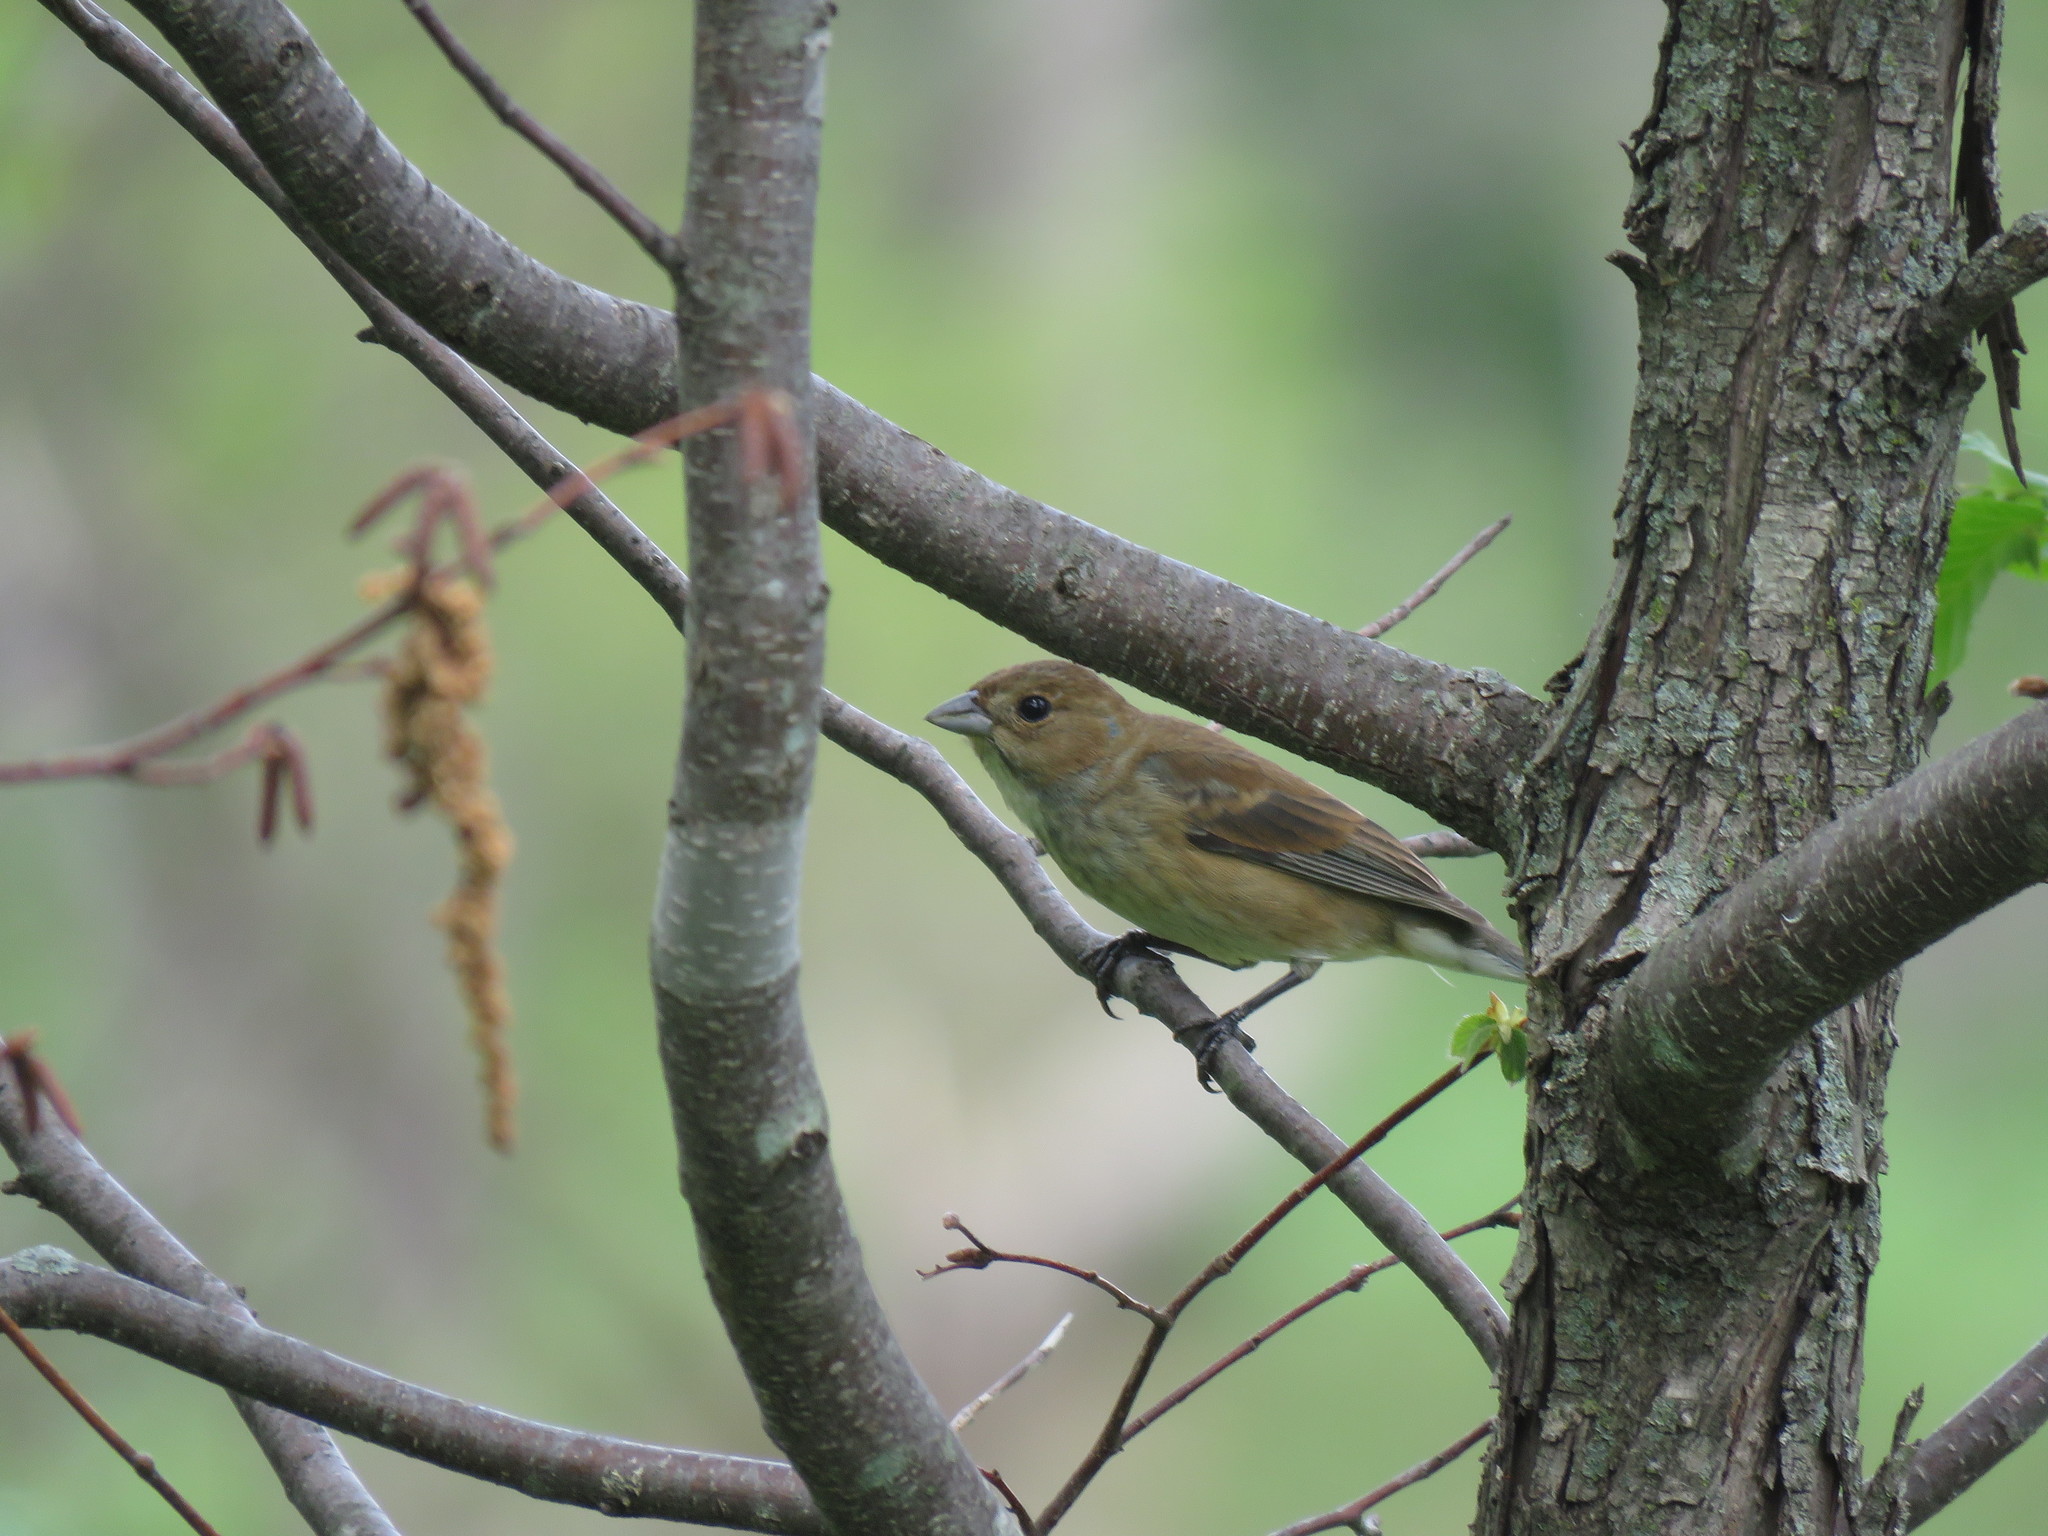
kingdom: Animalia
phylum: Chordata
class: Aves
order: Passeriformes
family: Cardinalidae
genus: Passerina
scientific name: Passerina cyanea
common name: Indigo bunting
